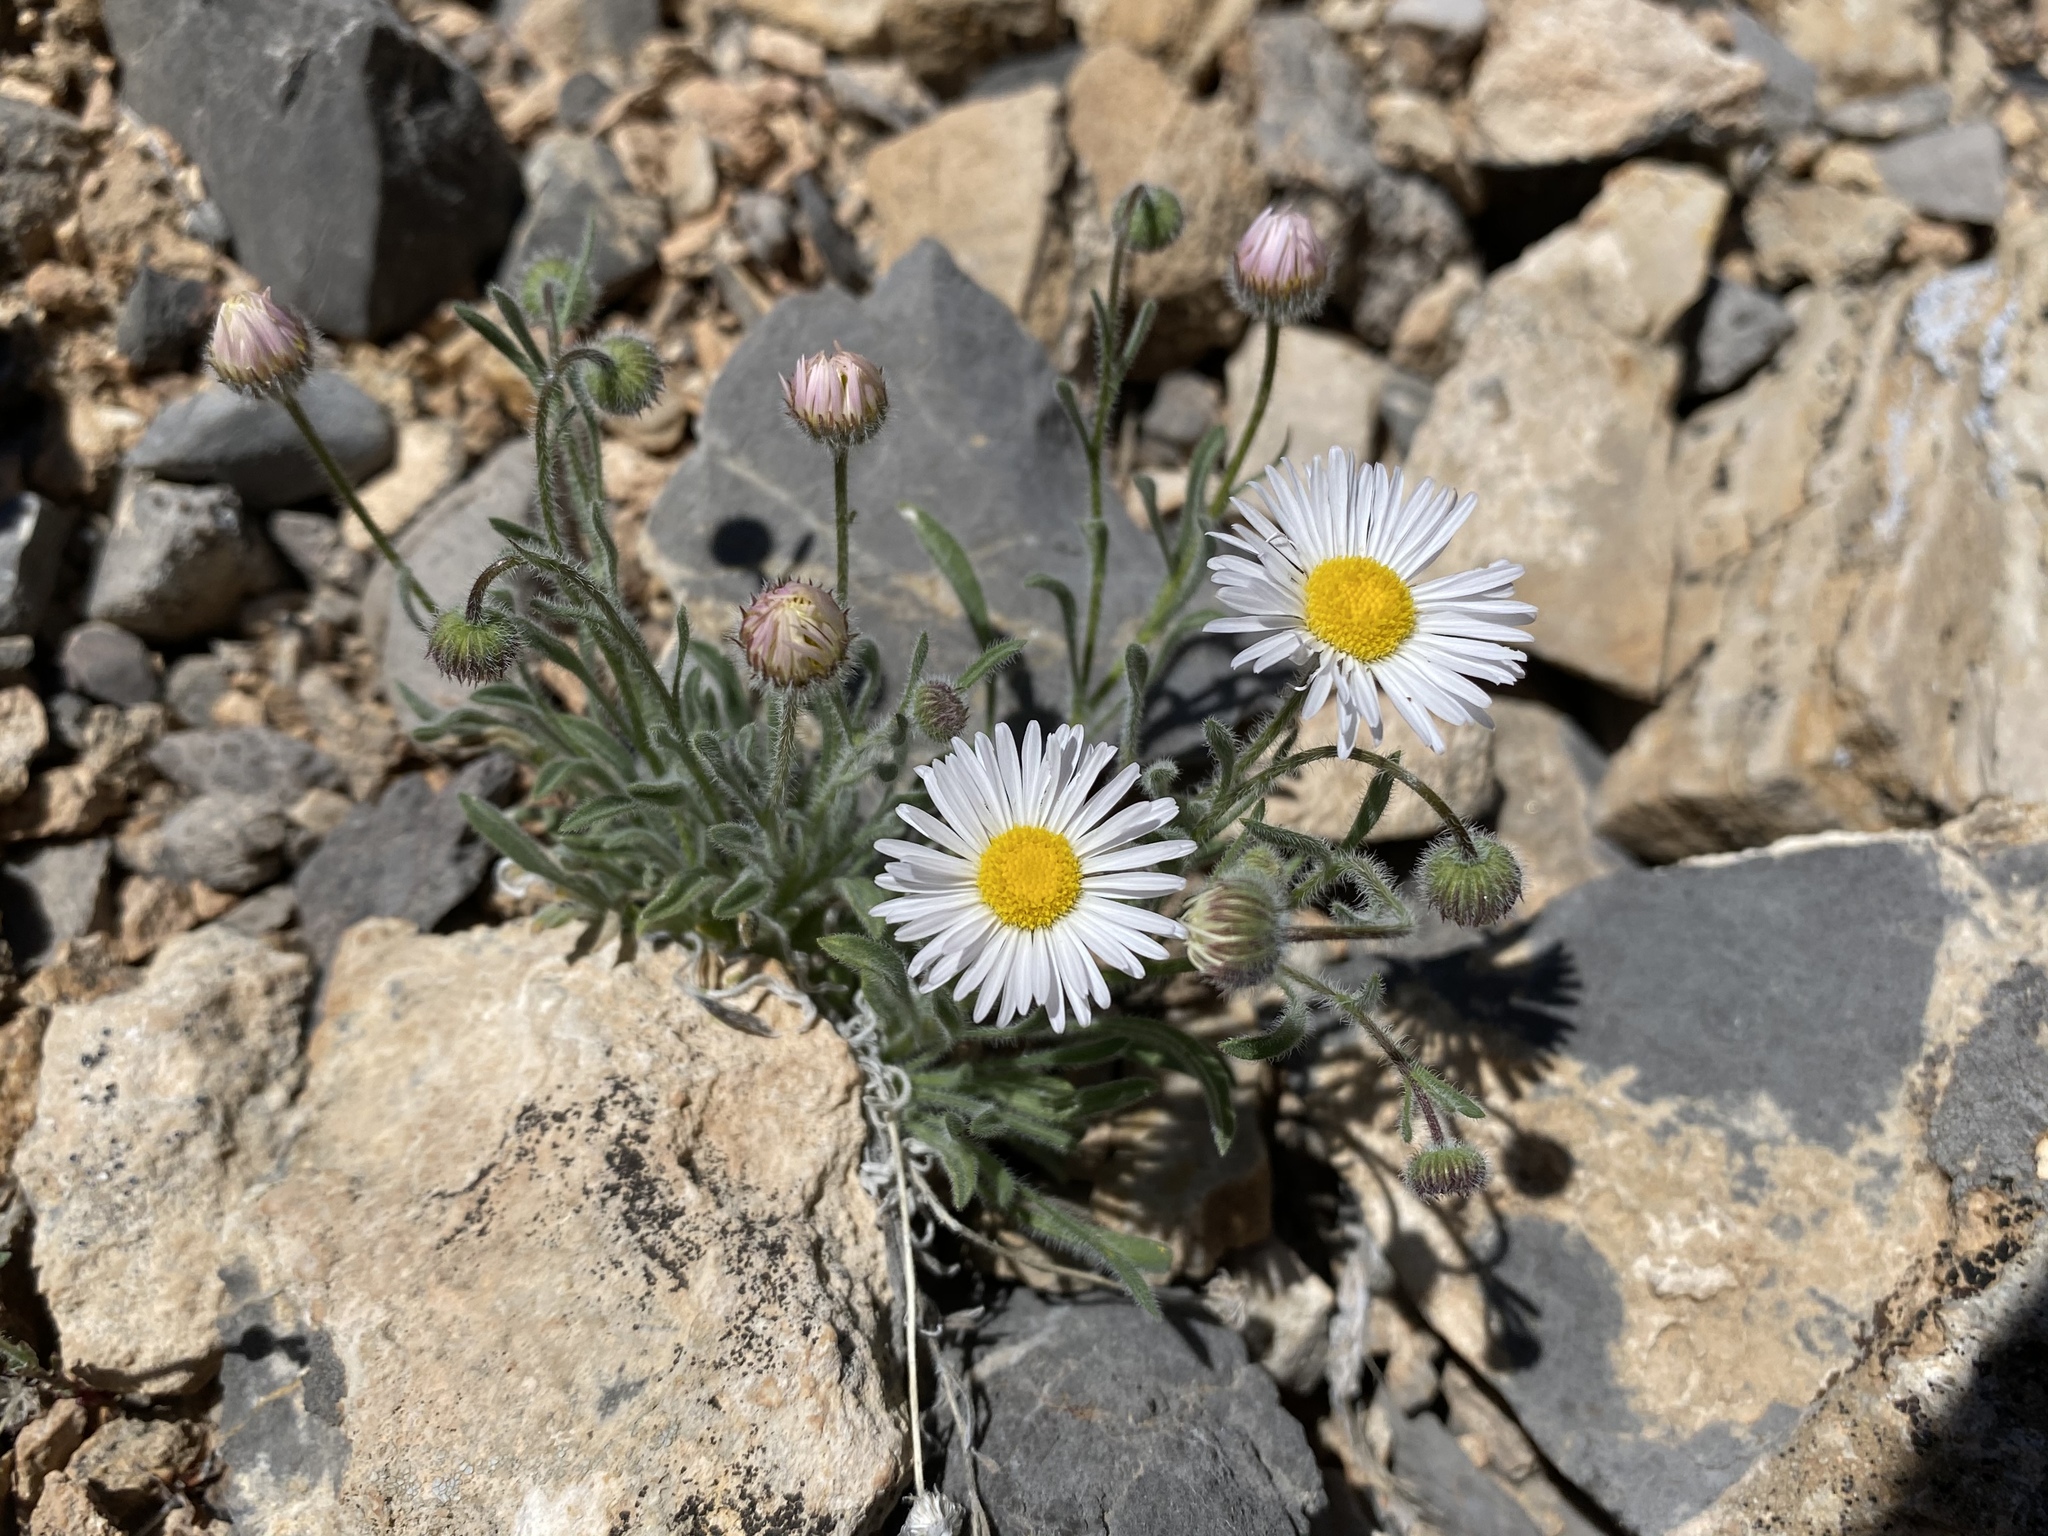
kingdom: Plantae
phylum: Tracheophyta
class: Magnoliopsida
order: Asterales
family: Asteraceae
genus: Erigeron
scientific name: Erigeron concinnus
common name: Navajo fleabane
